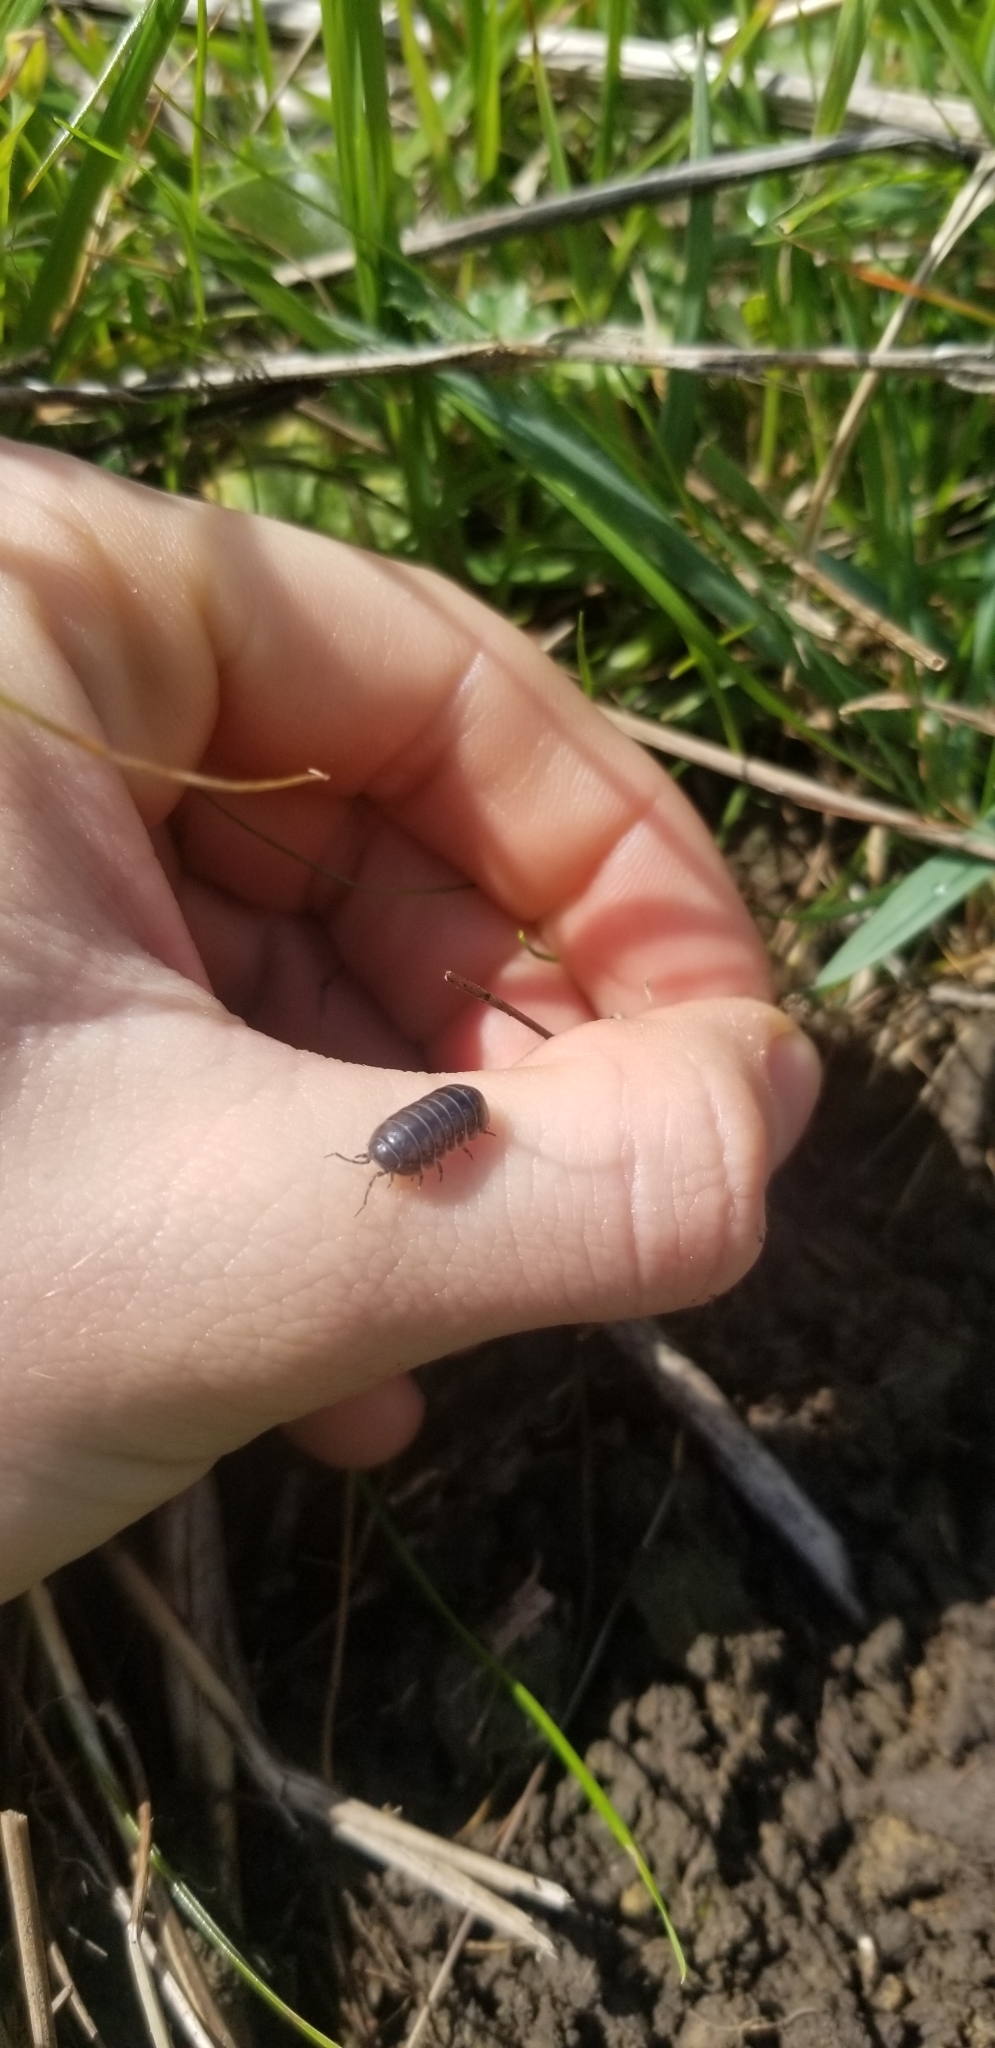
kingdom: Animalia
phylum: Arthropoda
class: Malacostraca
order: Isopoda
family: Armadillidiidae
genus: Armadillidium
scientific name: Armadillidium vulgare
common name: Common pill woodlouse
